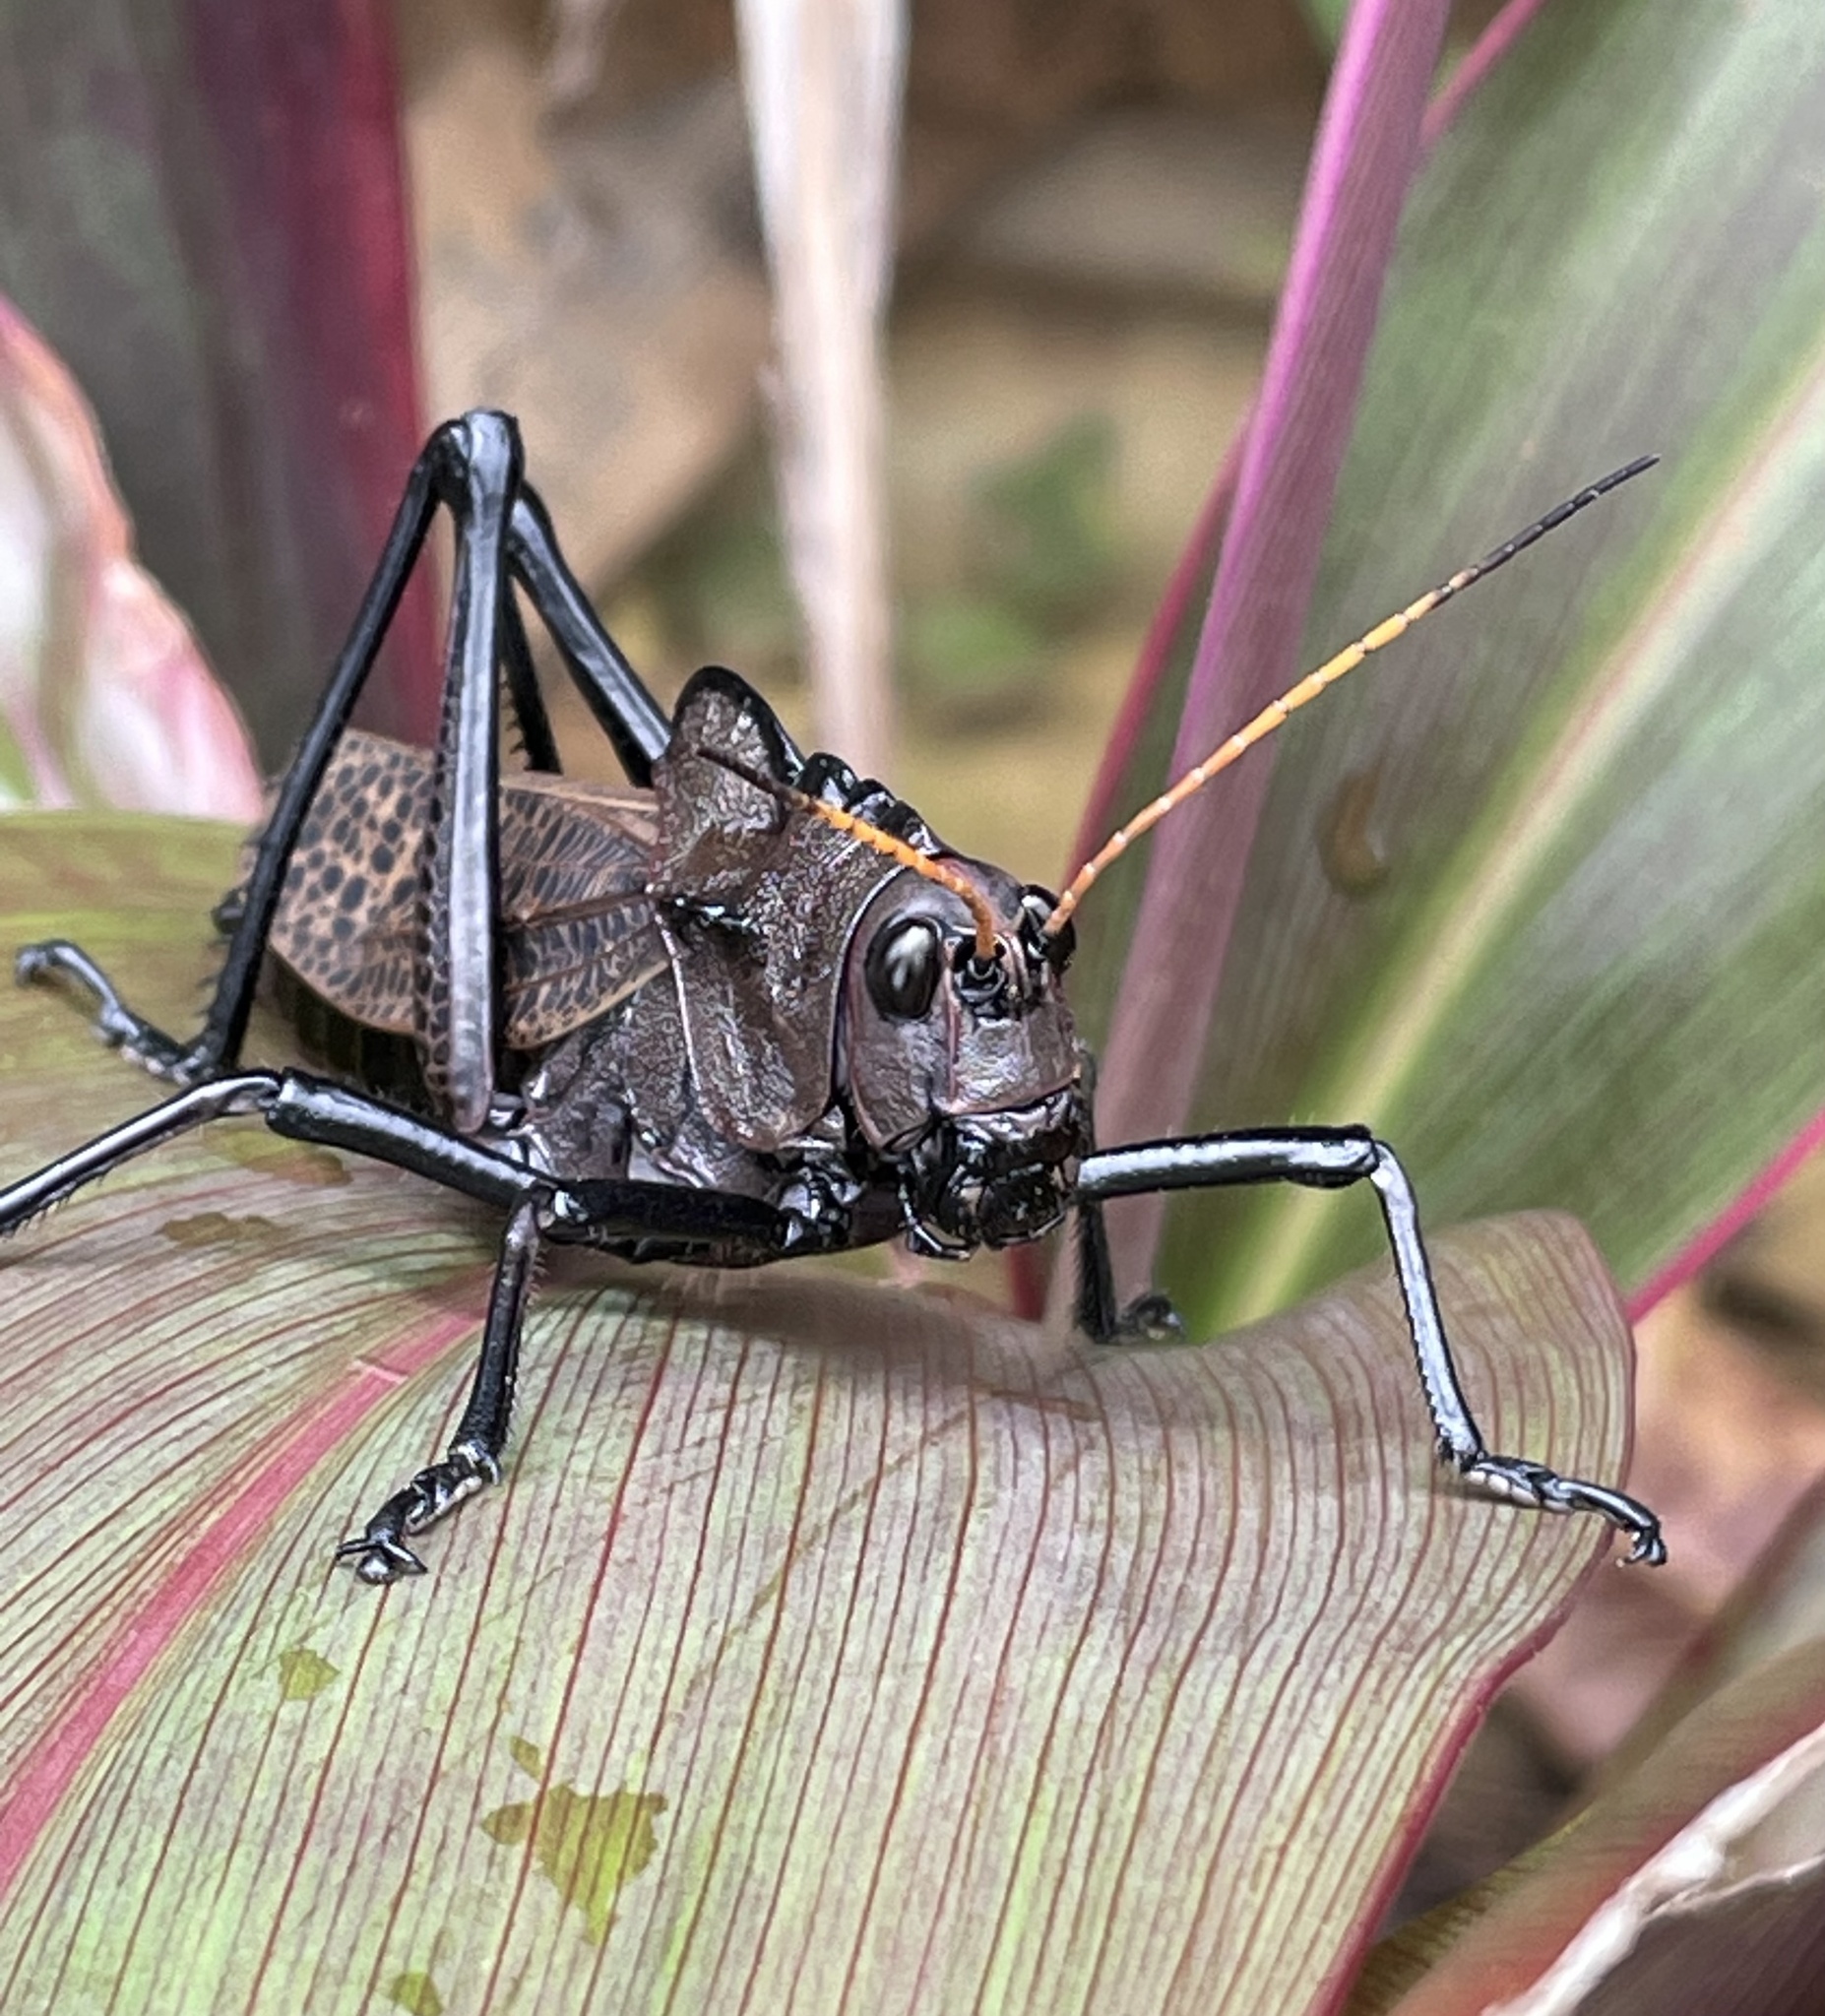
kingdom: Animalia
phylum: Arthropoda
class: Insecta
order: Orthoptera
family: Romaleidae
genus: Romalea
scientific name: Romalea
